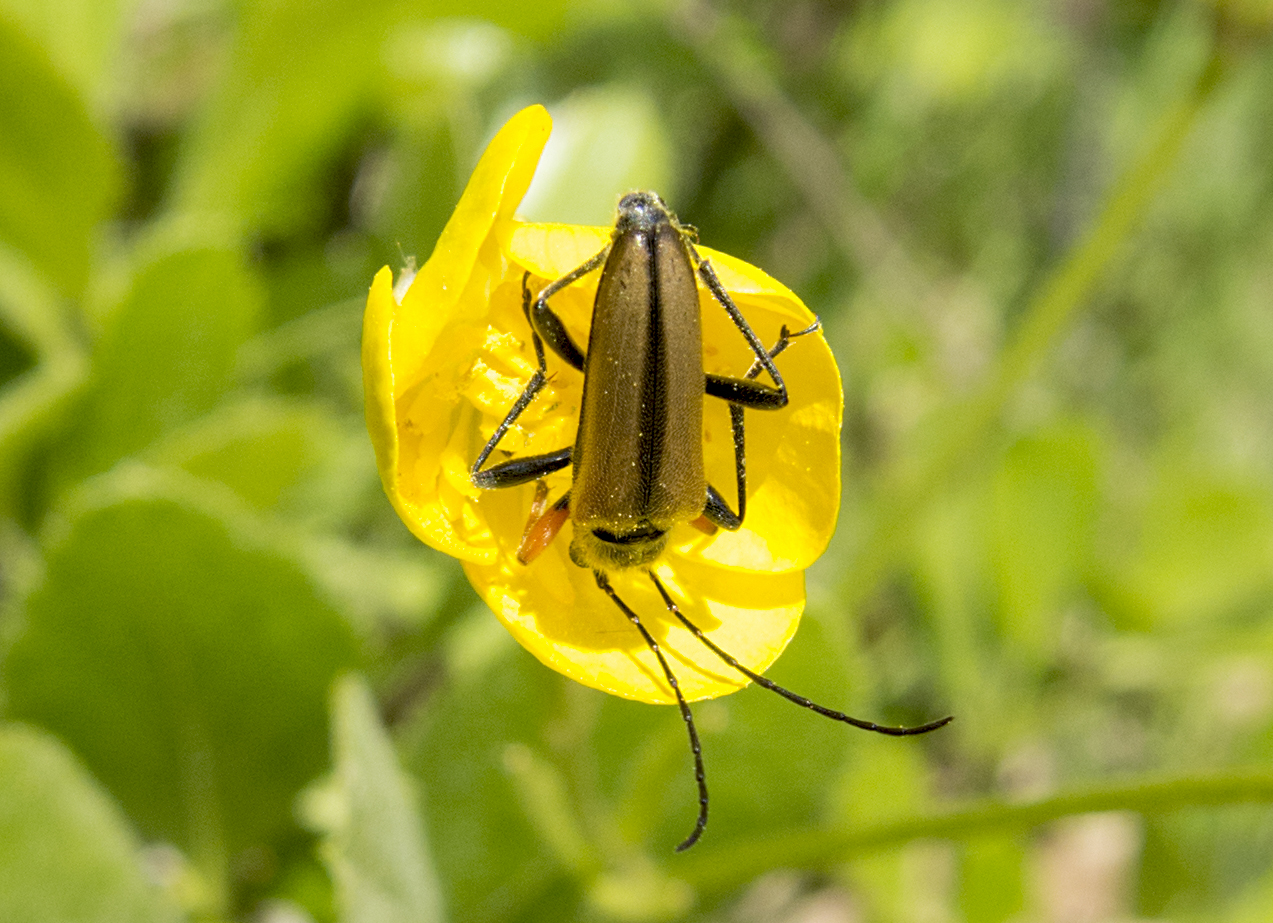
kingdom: Animalia
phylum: Arthropoda
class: Insecta
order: Coleoptera
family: Cerambycidae
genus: Cortodera
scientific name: Cortodera flavimana
